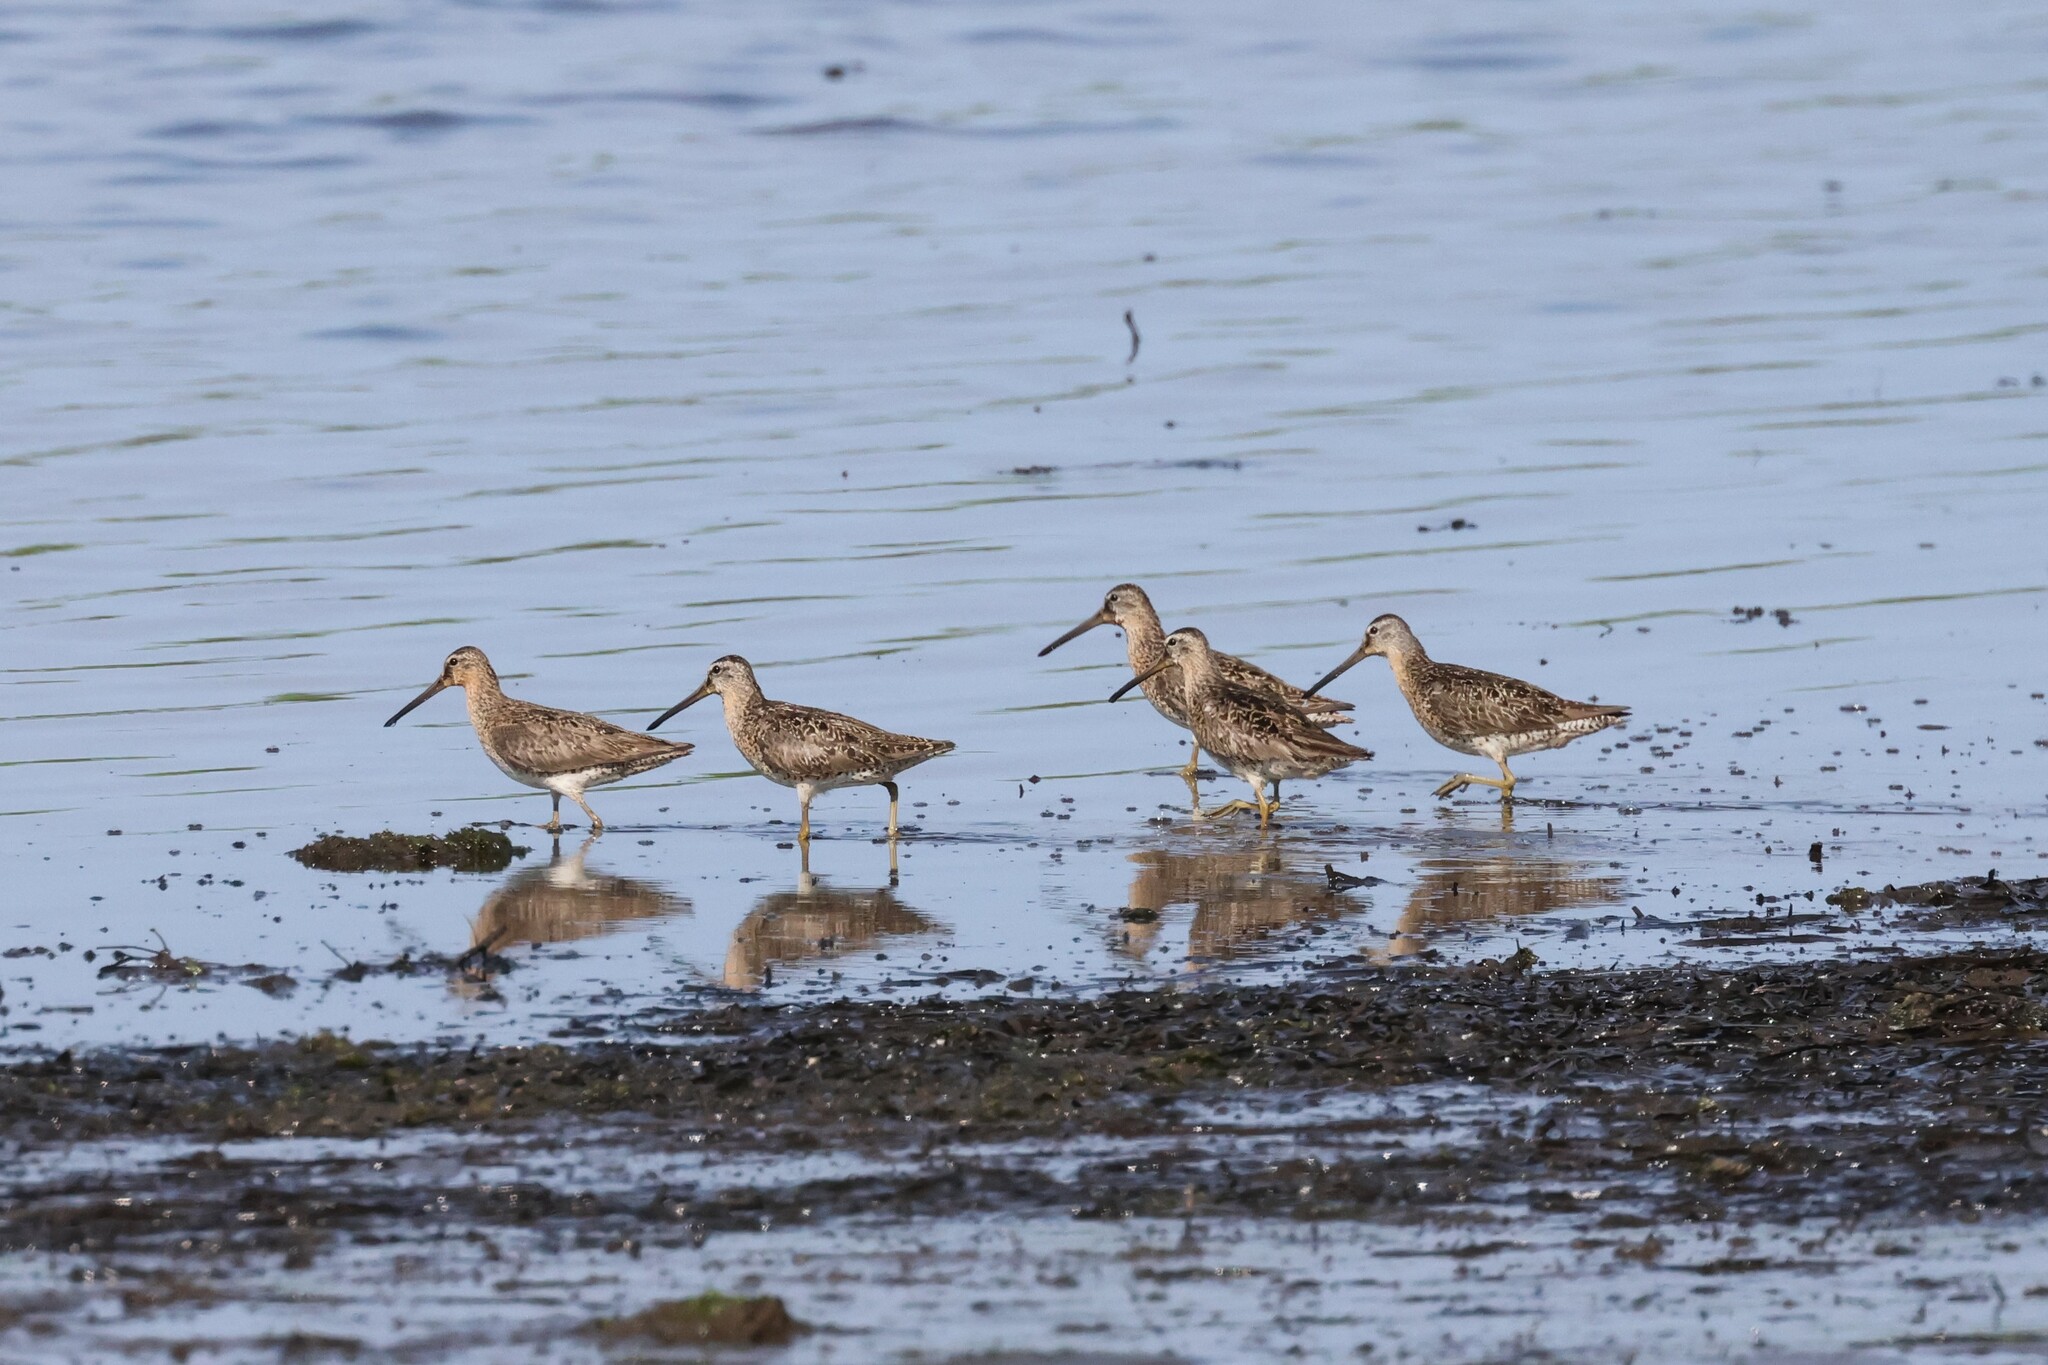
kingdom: Animalia
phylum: Chordata
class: Aves
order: Charadriiformes
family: Scolopacidae
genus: Limnodromus
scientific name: Limnodromus griseus
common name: Short-billed dowitcher
